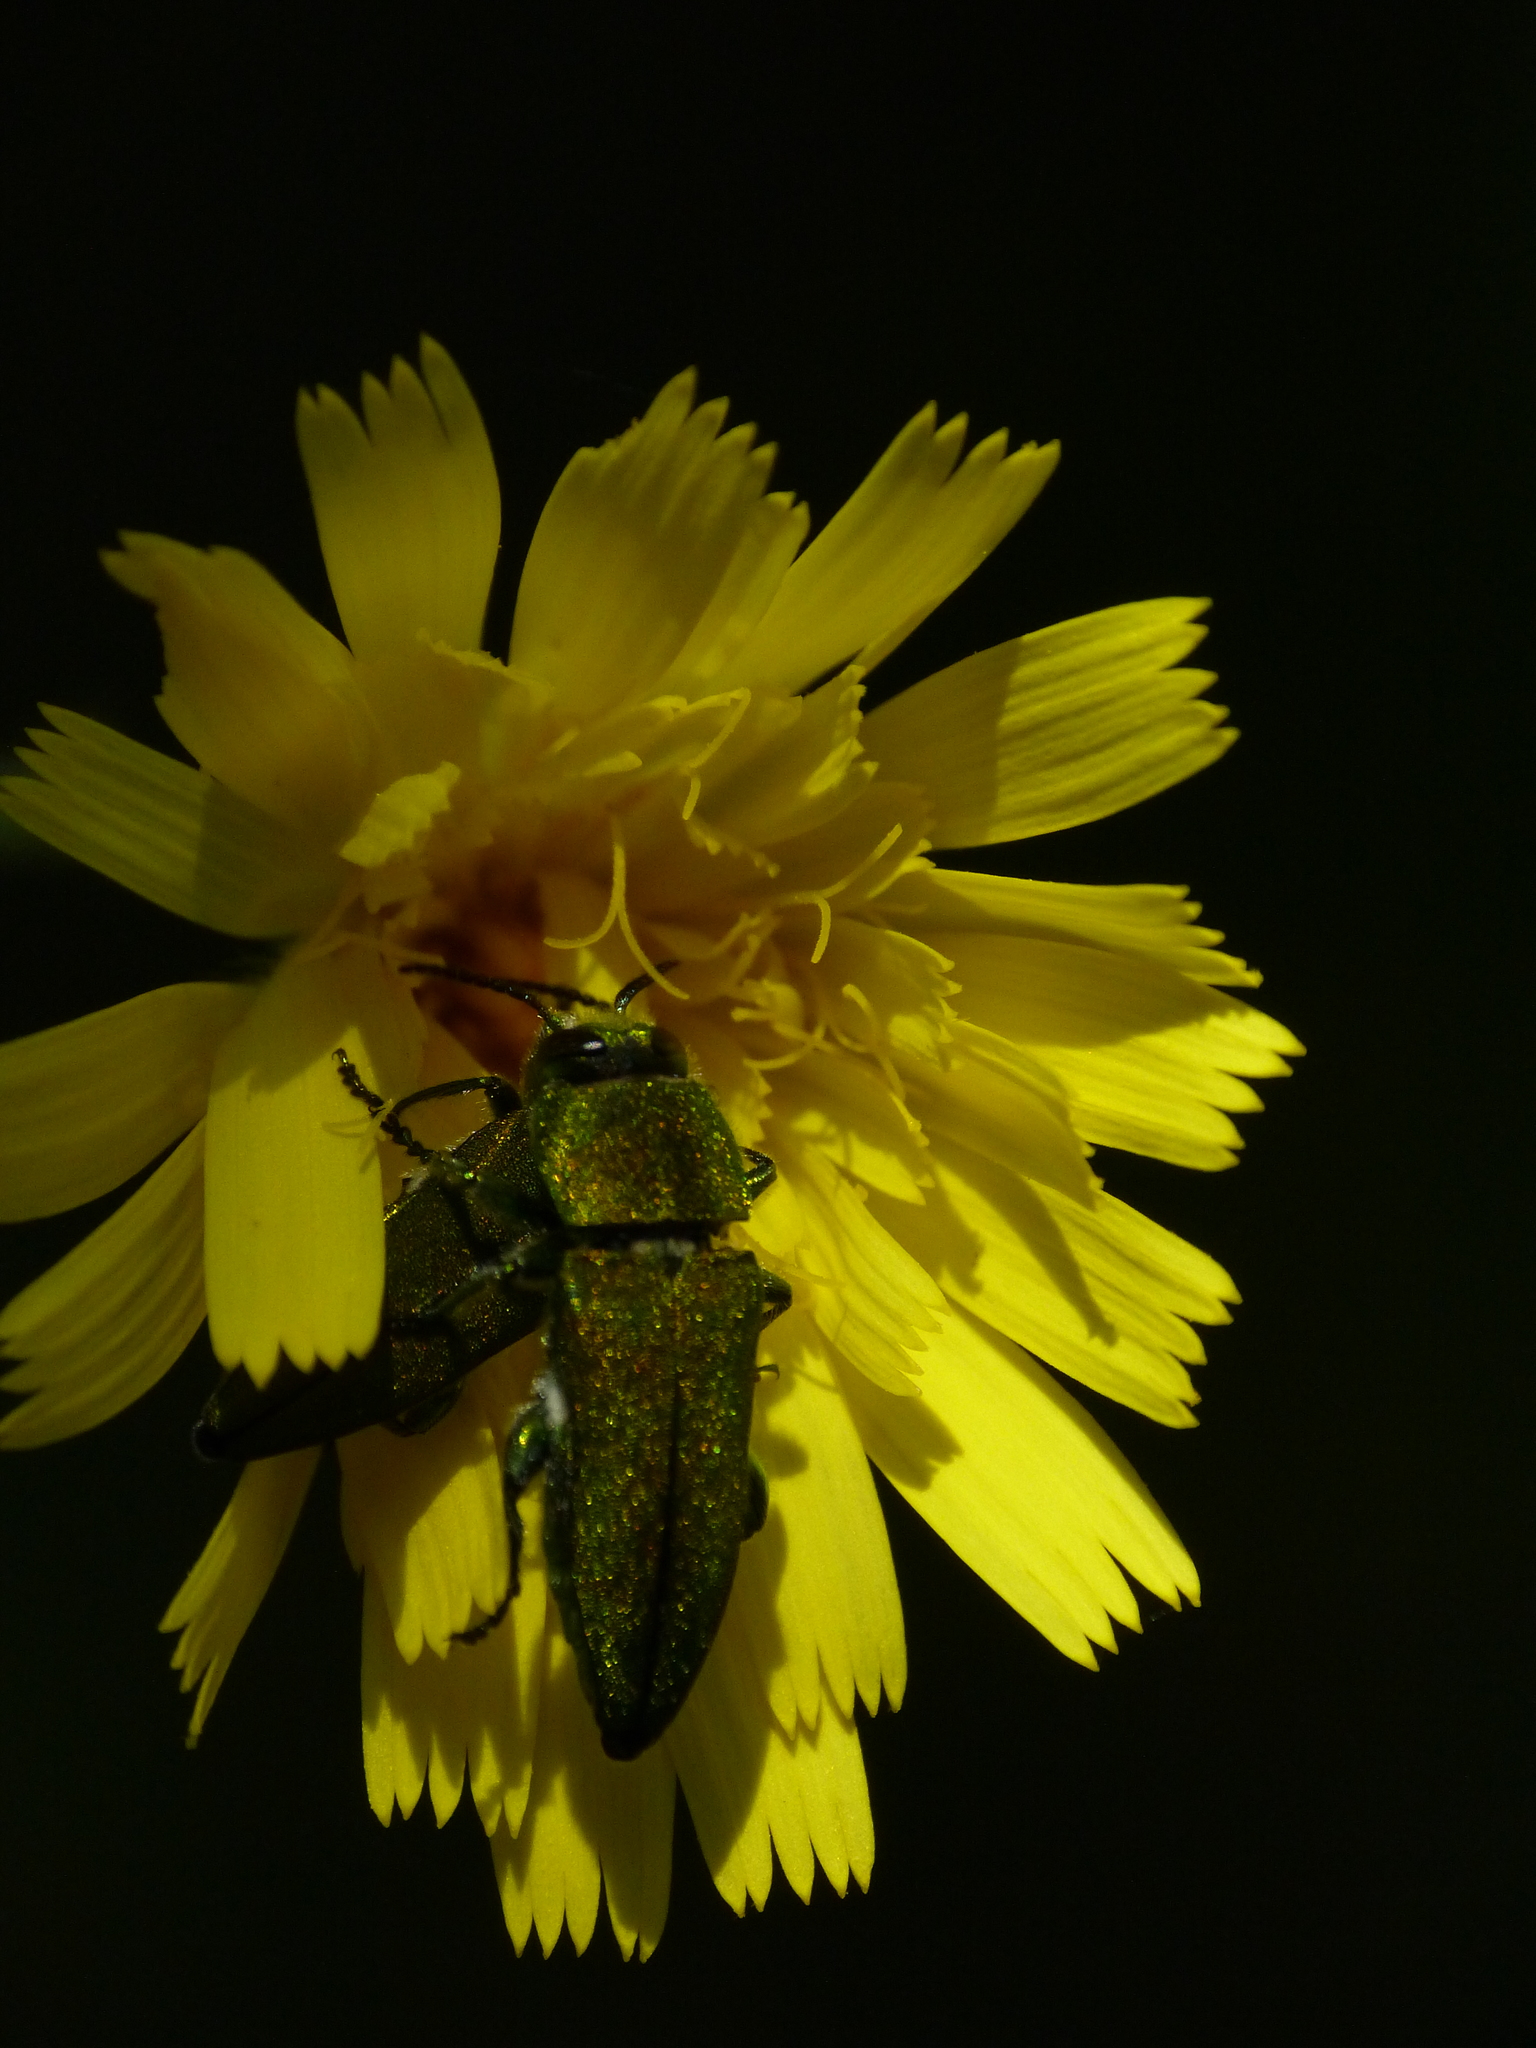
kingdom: Animalia
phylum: Arthropoda
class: Insecta
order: Coleoptera
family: Buprestidae
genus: Anthaxia
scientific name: Anthaxia hungarica
